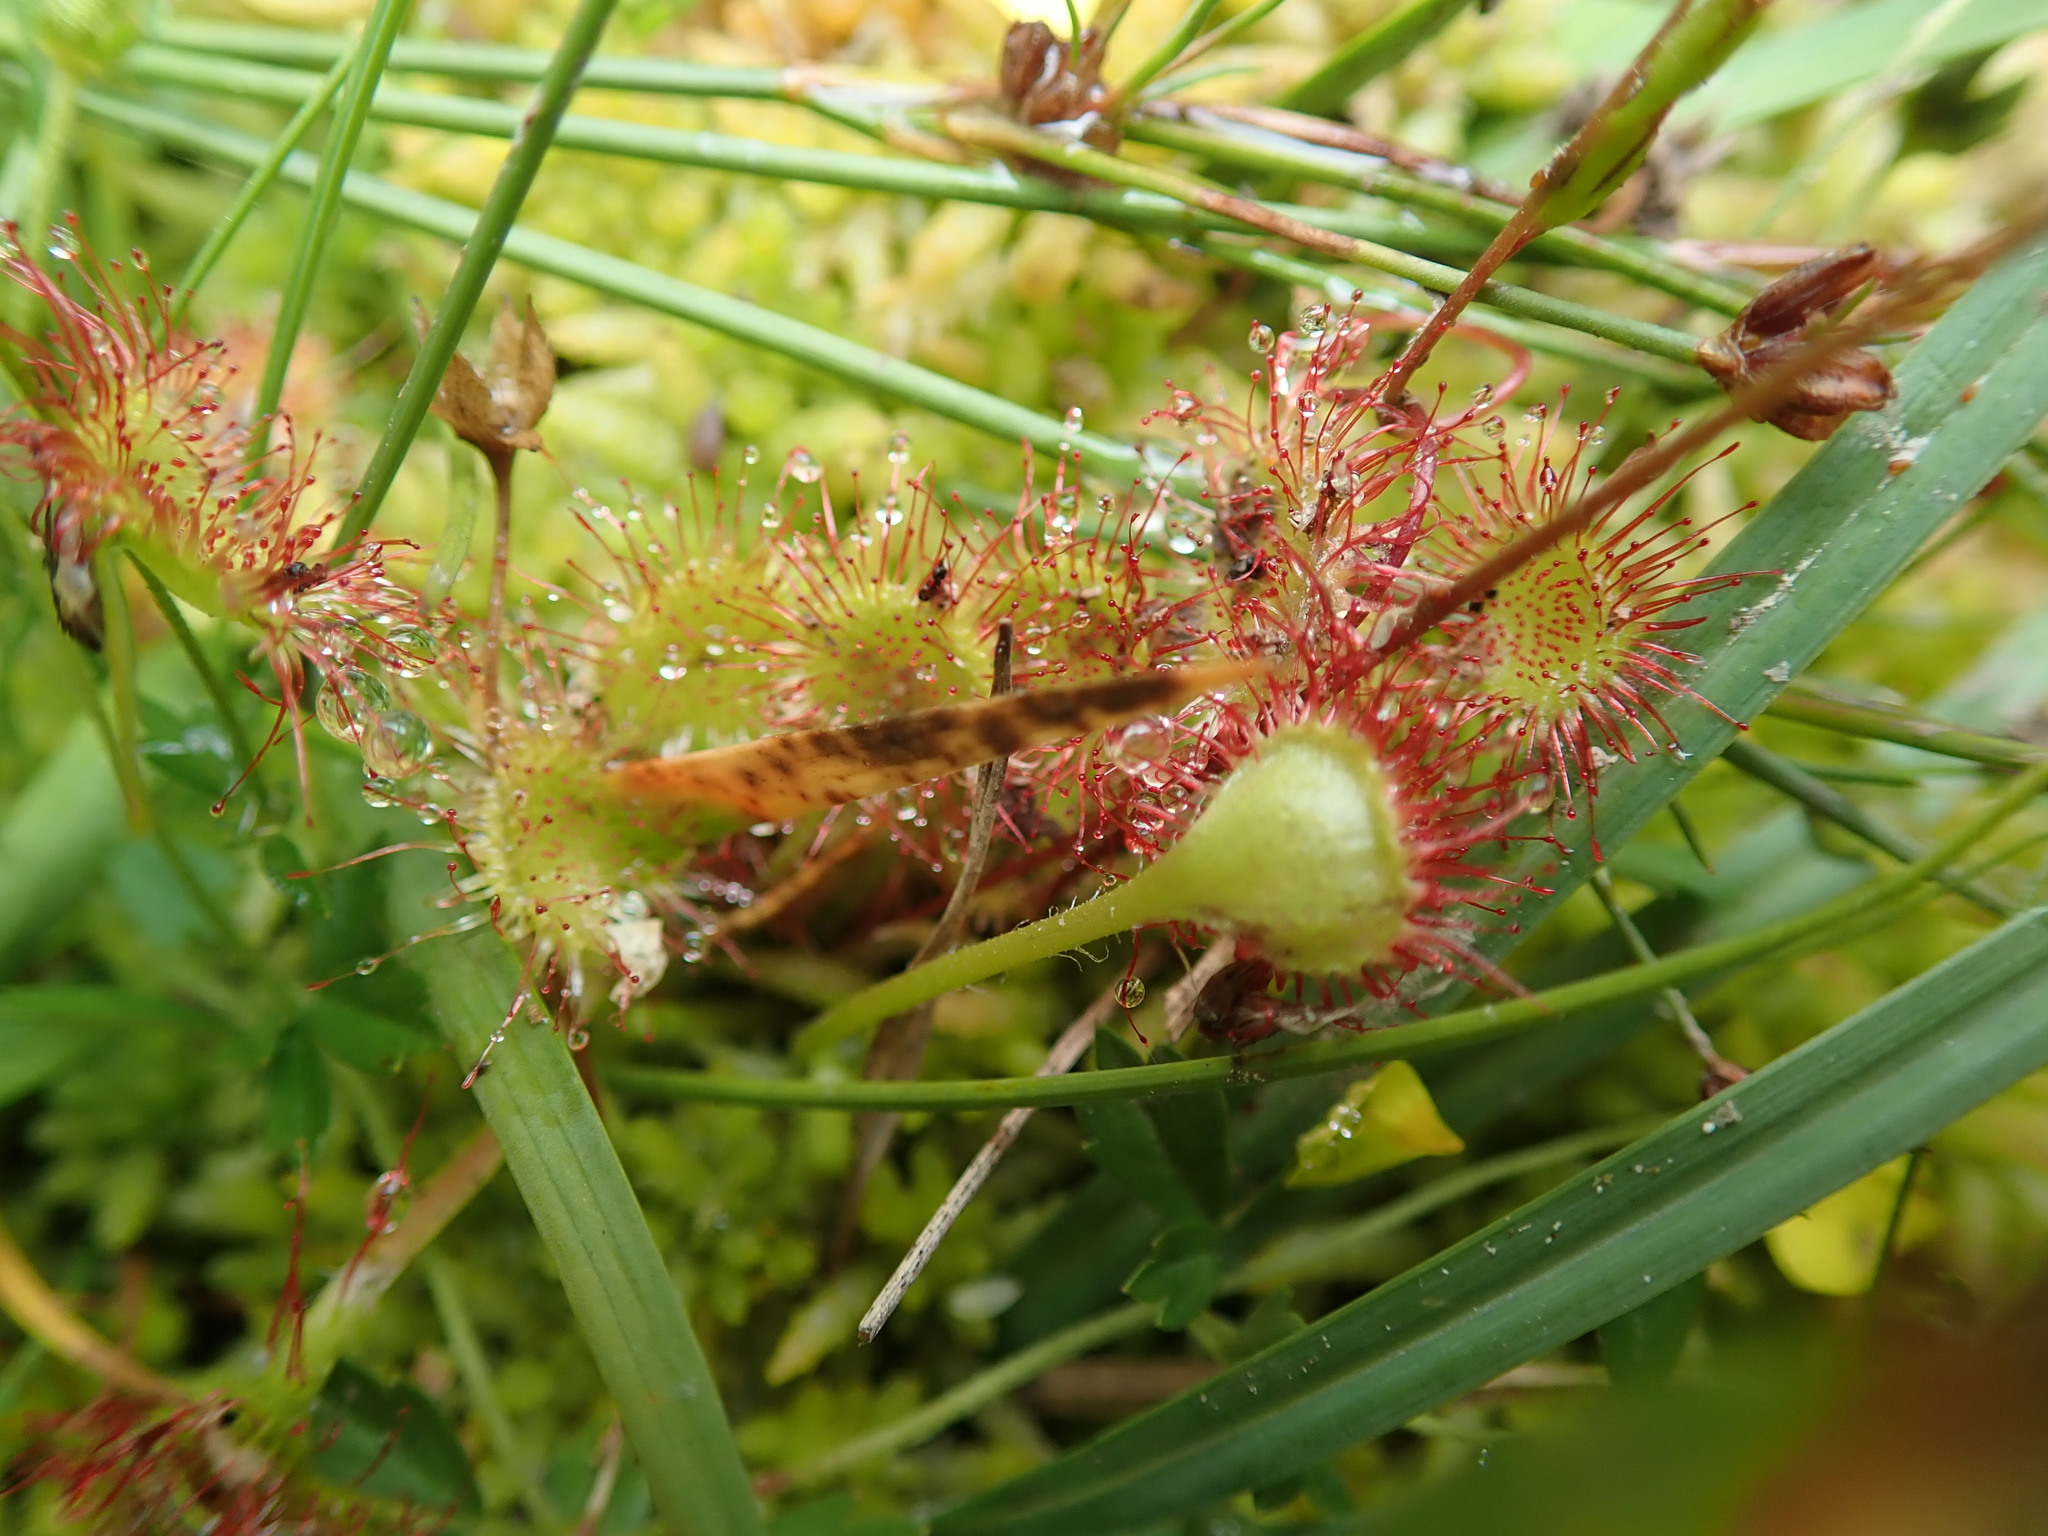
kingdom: Plantae
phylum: Tracheophyta
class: Magnoliopsida
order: Caryophyllales
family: Droseraceae
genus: Drosera
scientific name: Drosera rotundifolia
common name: Round-leaved sundew
